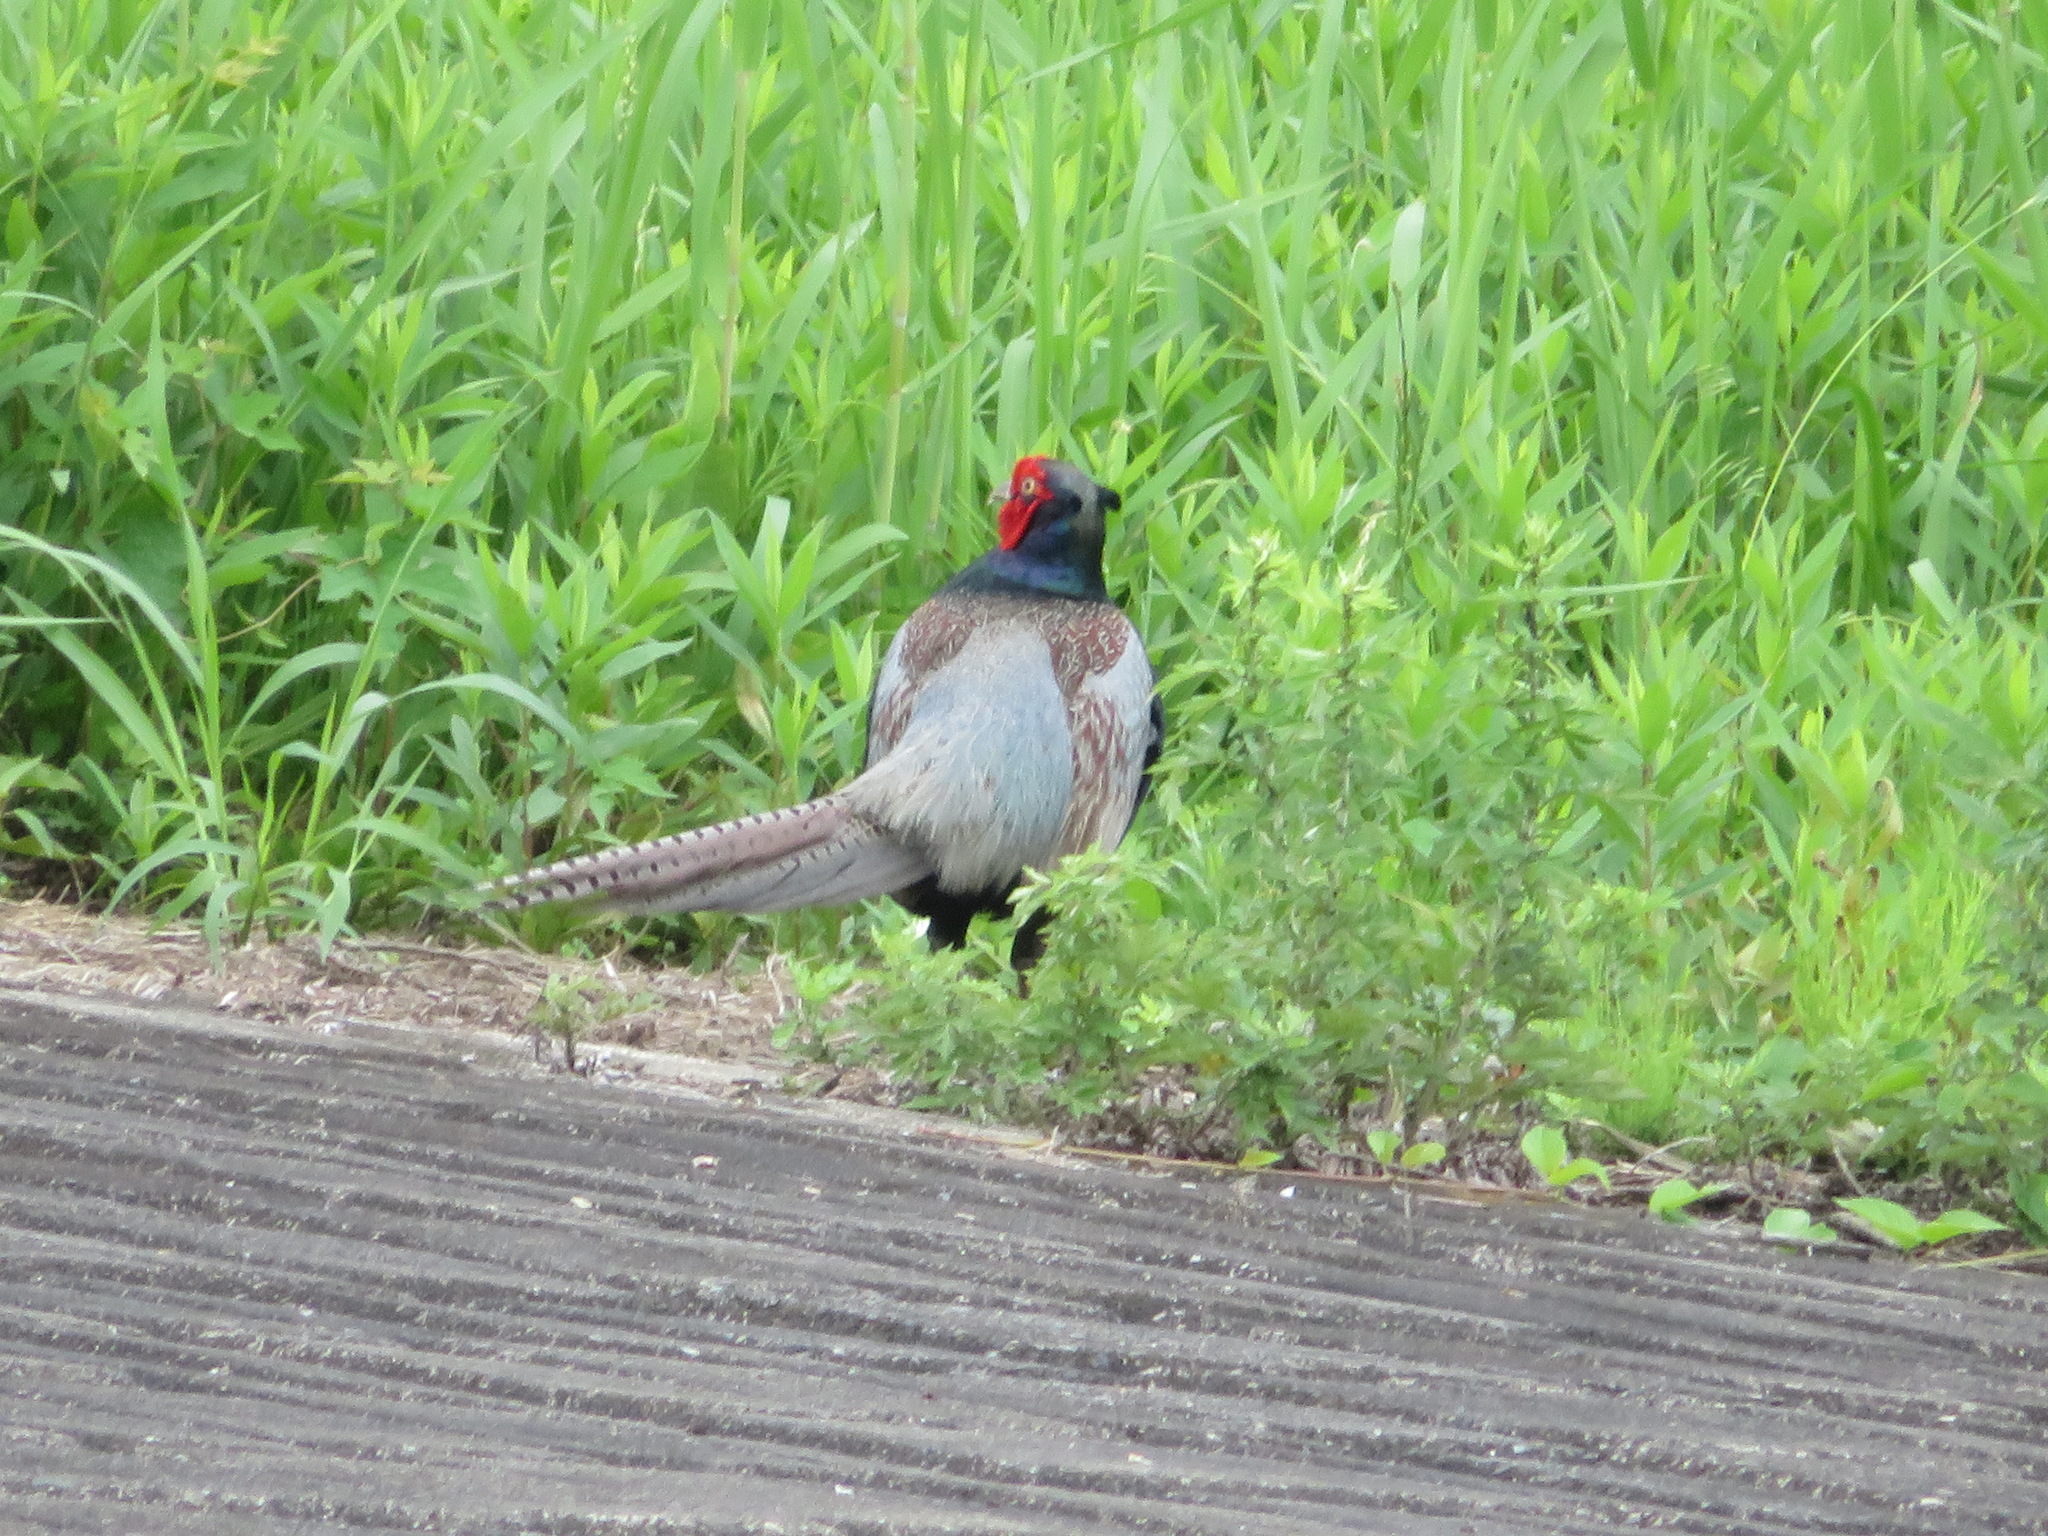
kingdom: Animalia
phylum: Chordata
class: Aves
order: Galliformes
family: Phasianidae
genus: Phasianus
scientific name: Phasianus versicolor
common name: Green pheasant
